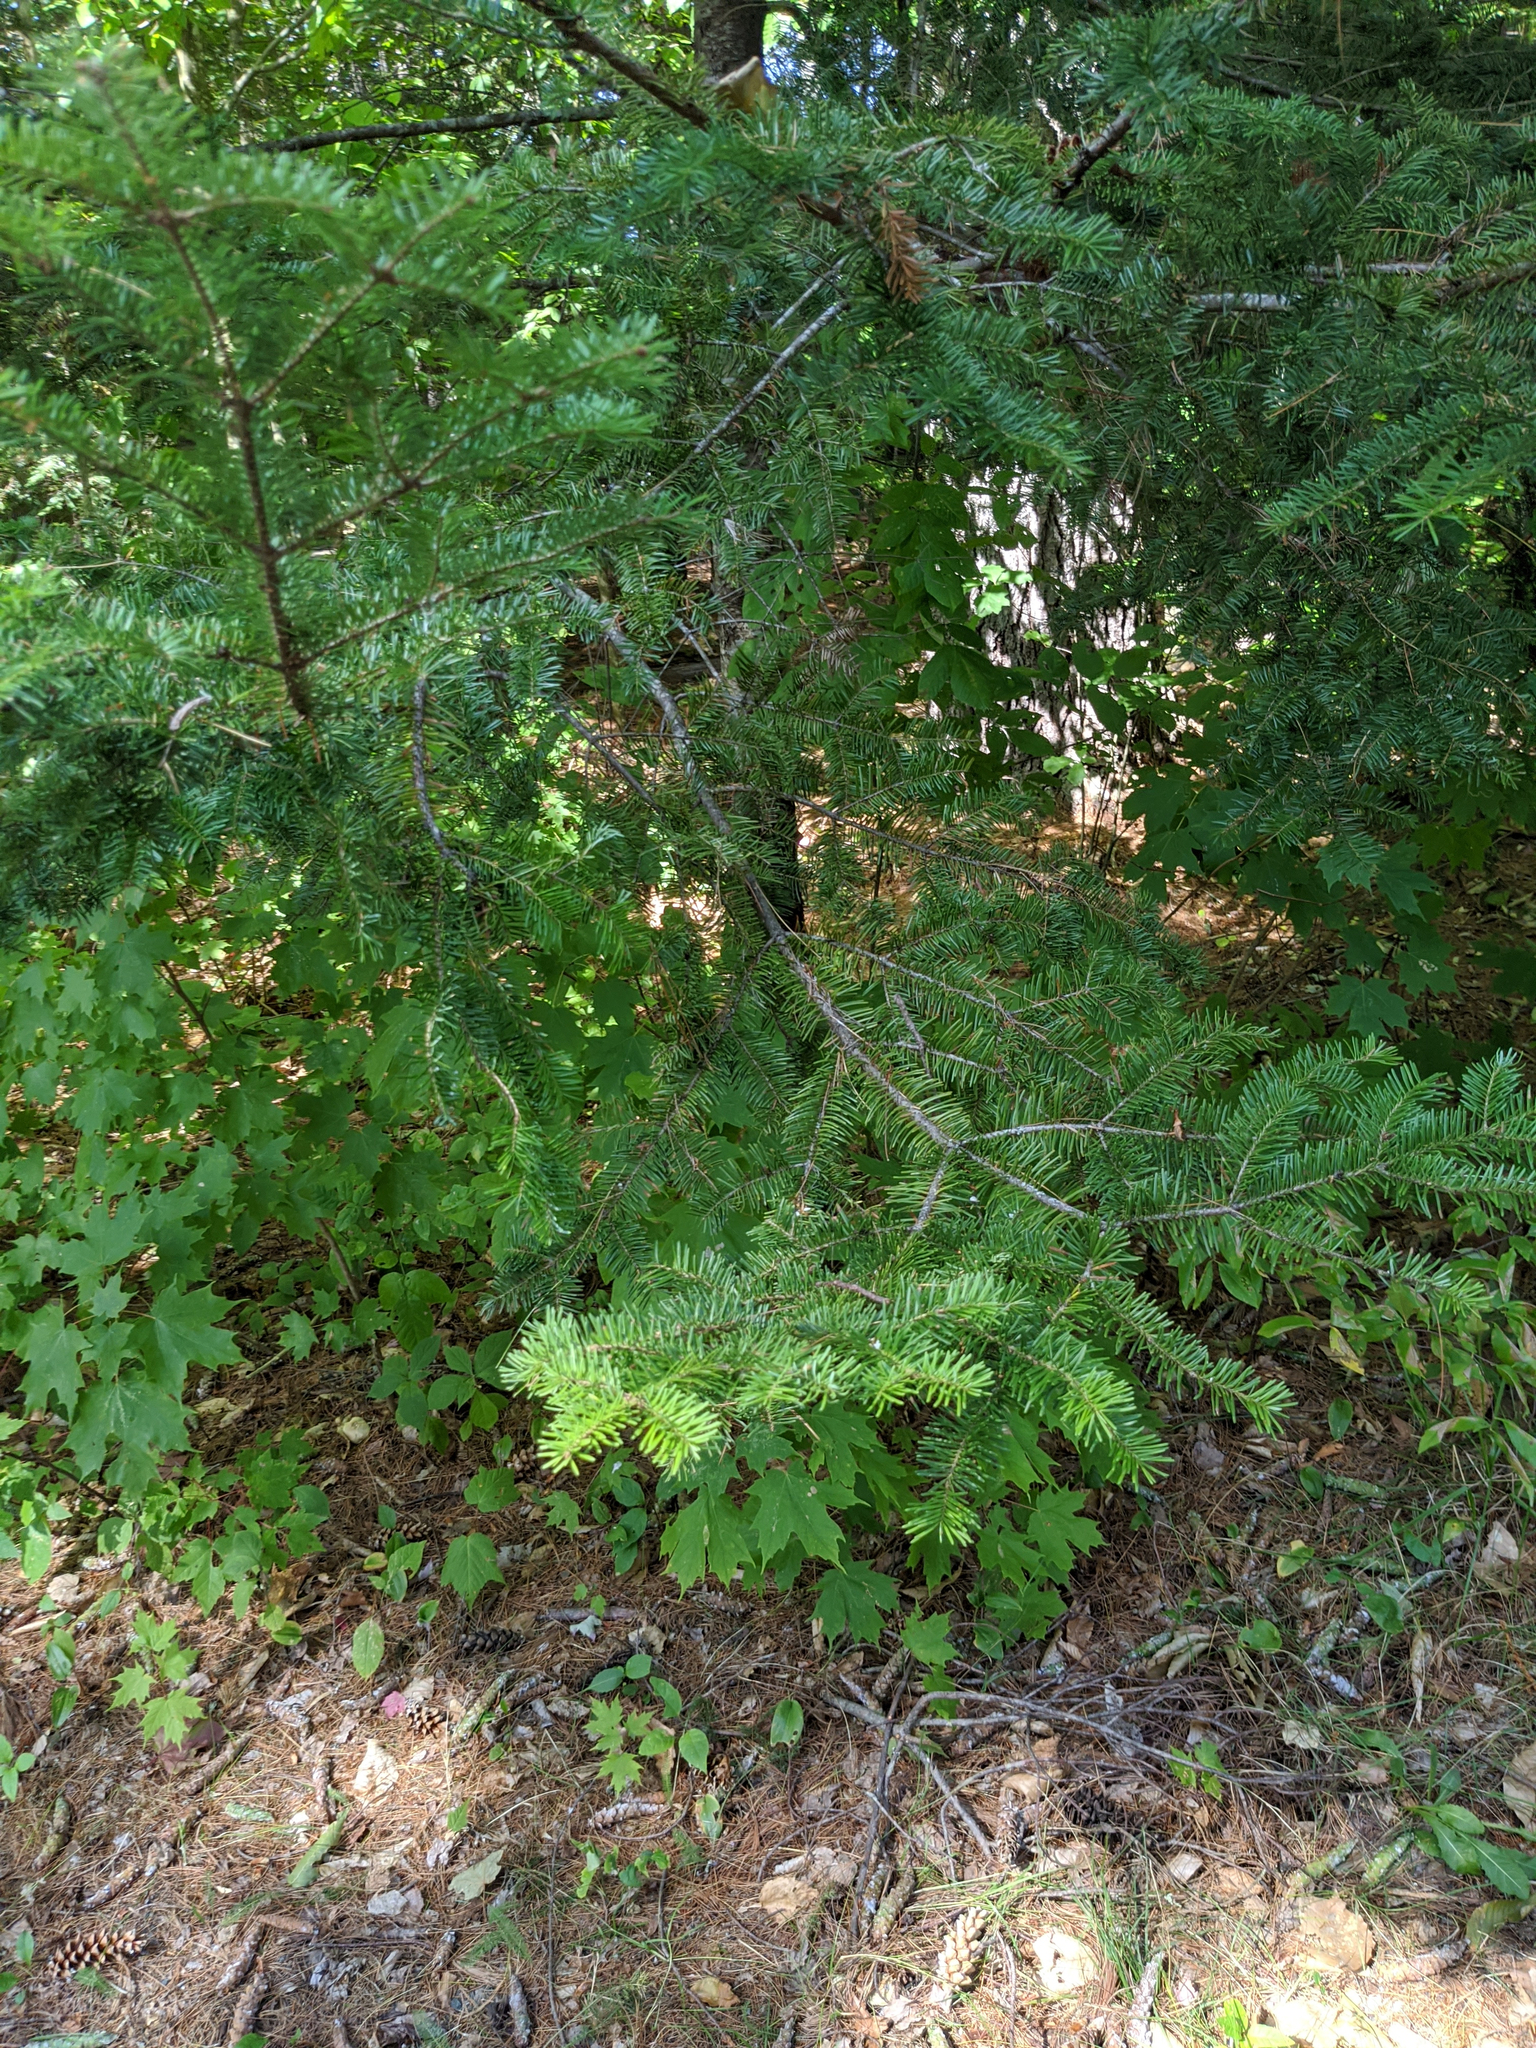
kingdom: Plantae
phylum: Tracheophyta
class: Pinopsida
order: Pinales
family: Pinaceae
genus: Abies
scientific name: Abies balsamea
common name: Balsam fir
